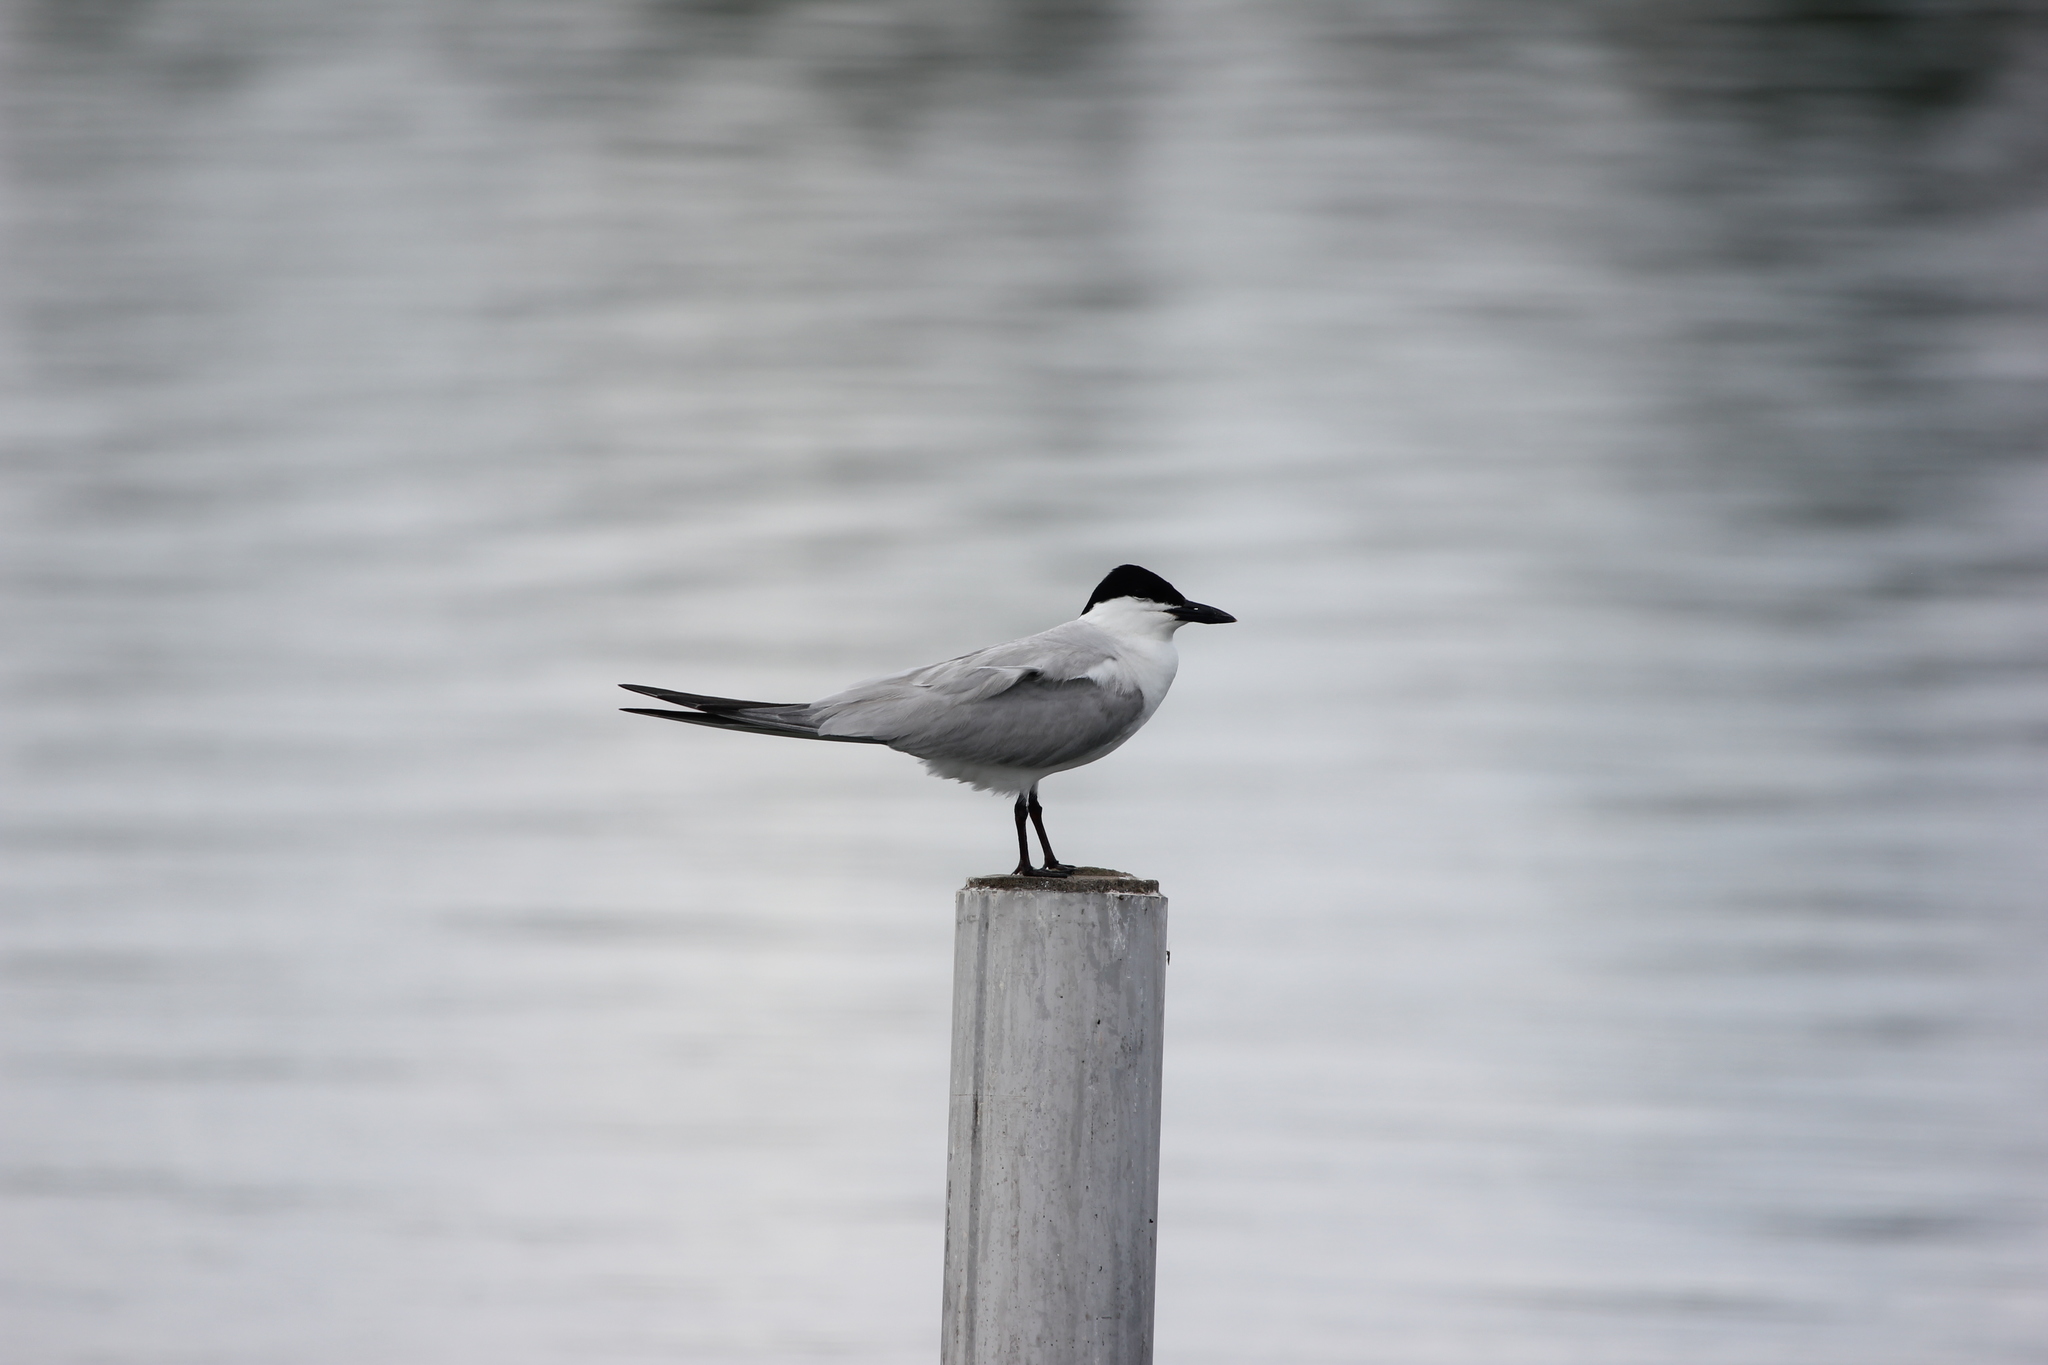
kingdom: Animalia
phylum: Chordata
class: Aves
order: Charadriiformes
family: Laridae
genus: Gelochelidon
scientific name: Gelochelidon nilotica
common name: Gull-billed tern
